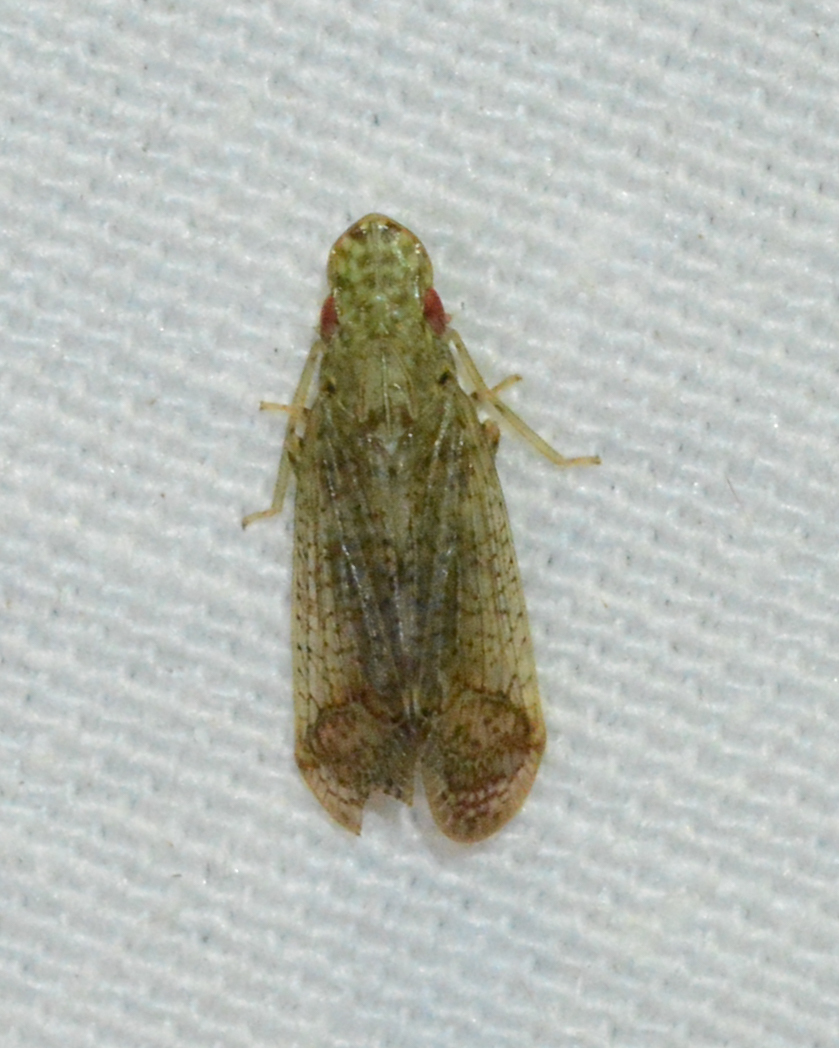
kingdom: Animalia
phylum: Arthropoda
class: Insecta
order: Hemiptera
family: Tropiduchidae
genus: Pelitropis
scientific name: Pelitropis rotulata
